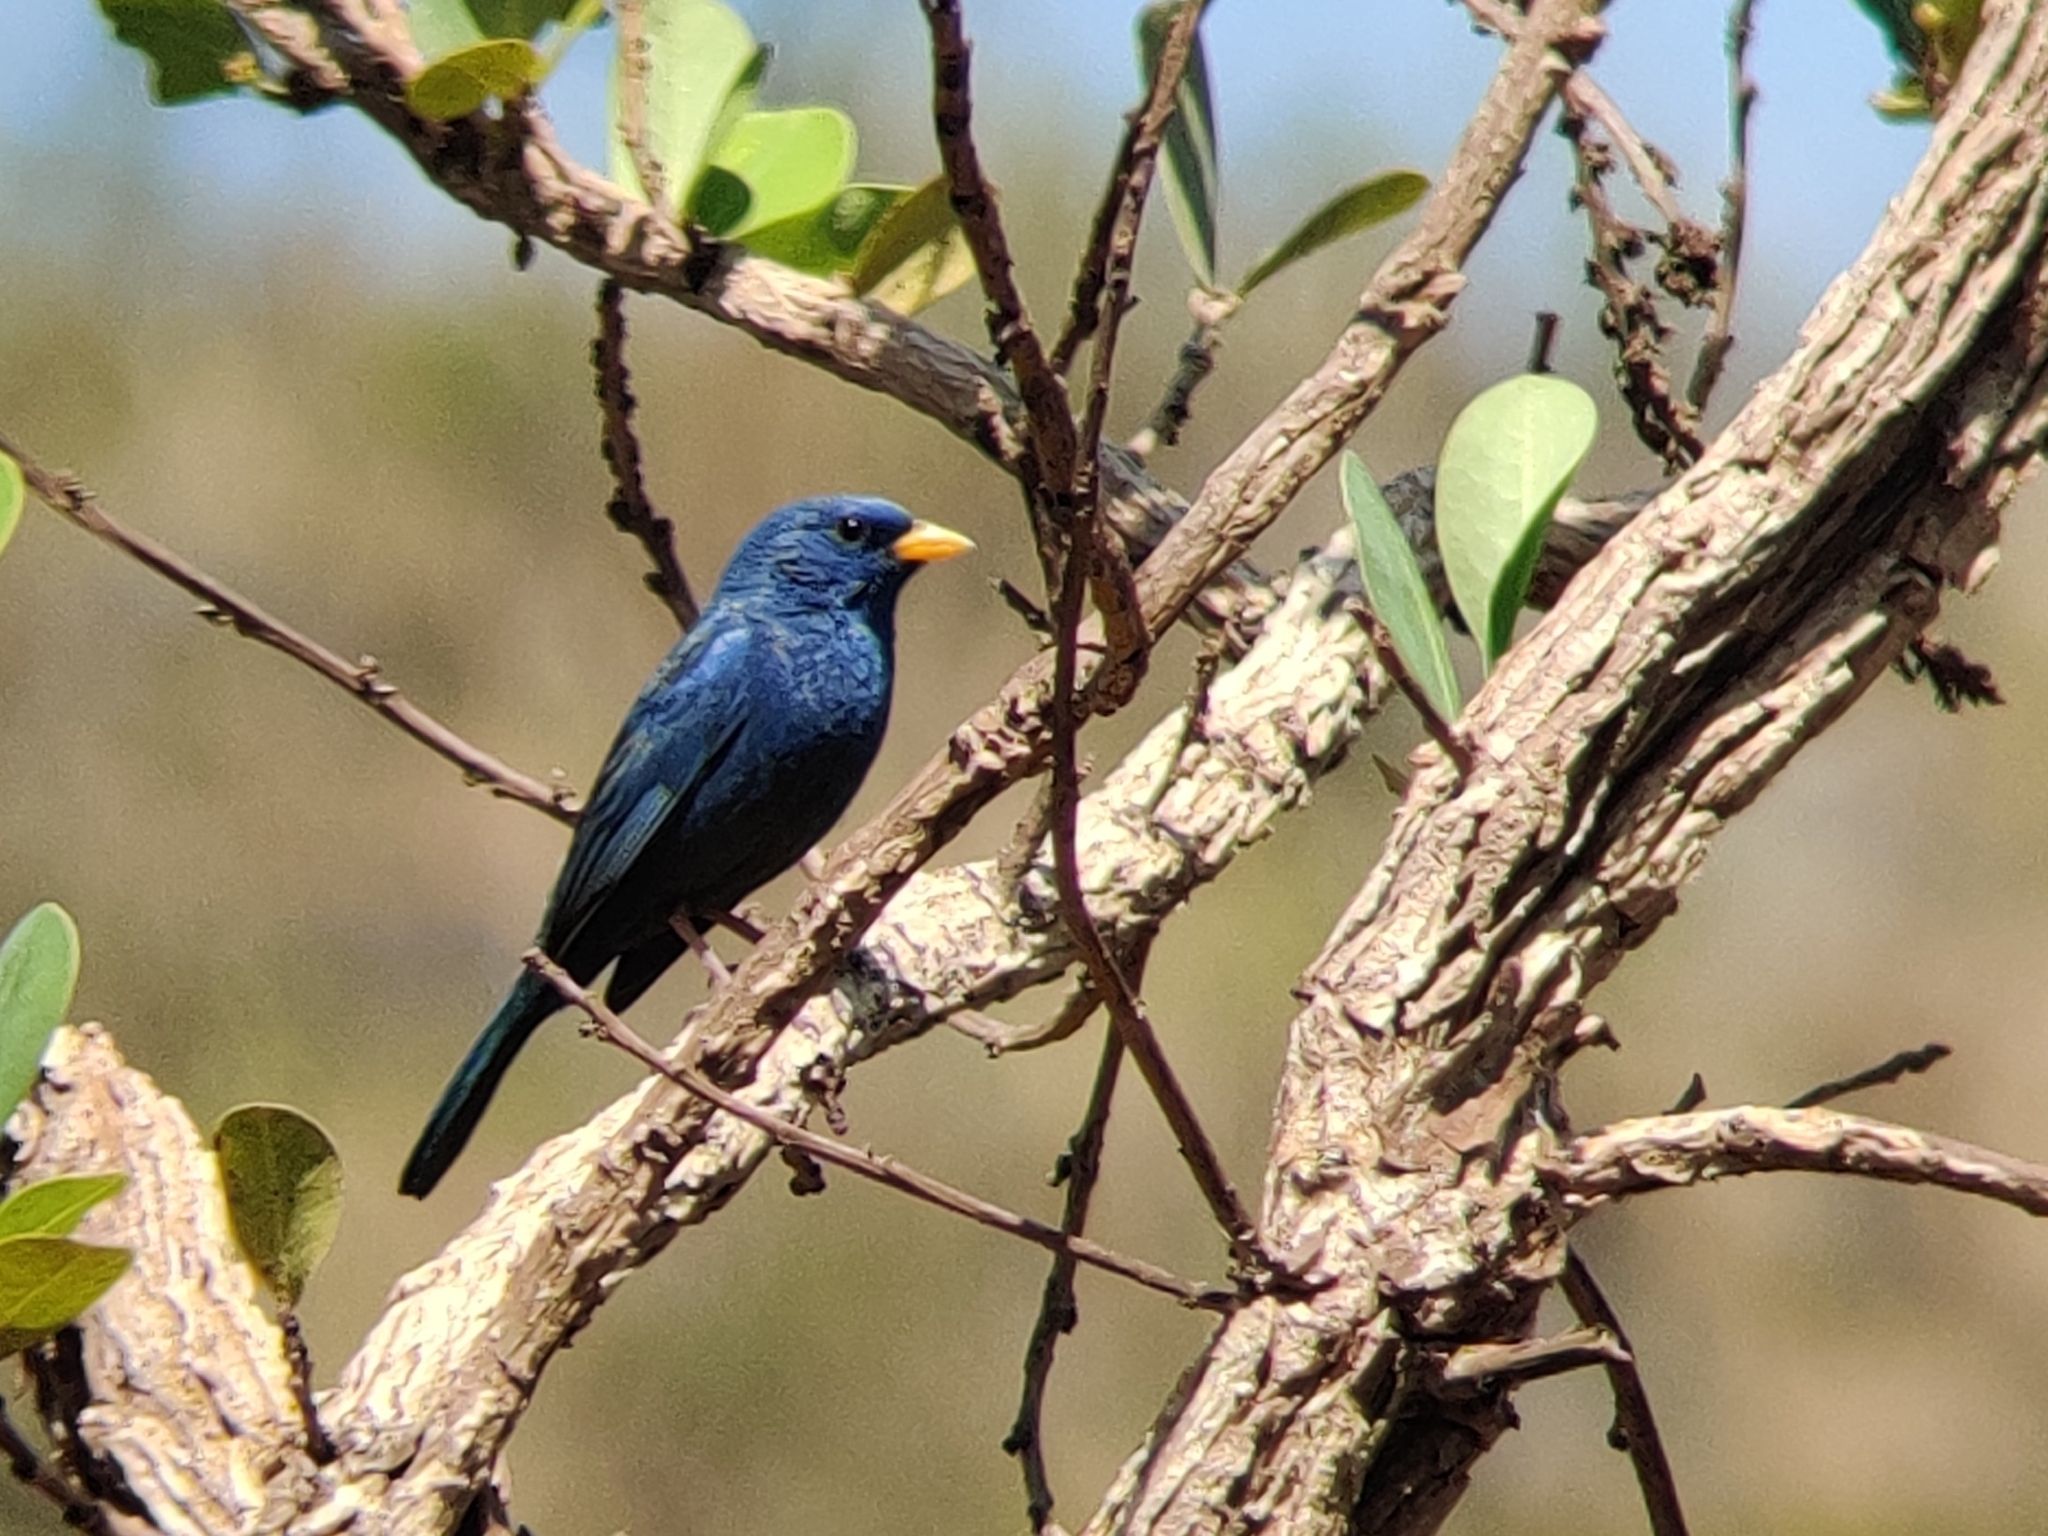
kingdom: Animalia
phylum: Chordata
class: Aves
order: Passeriformes
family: Thraupidae
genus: Porphyrospiza
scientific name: Porphyrospiza caerulescens
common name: Blue finch
